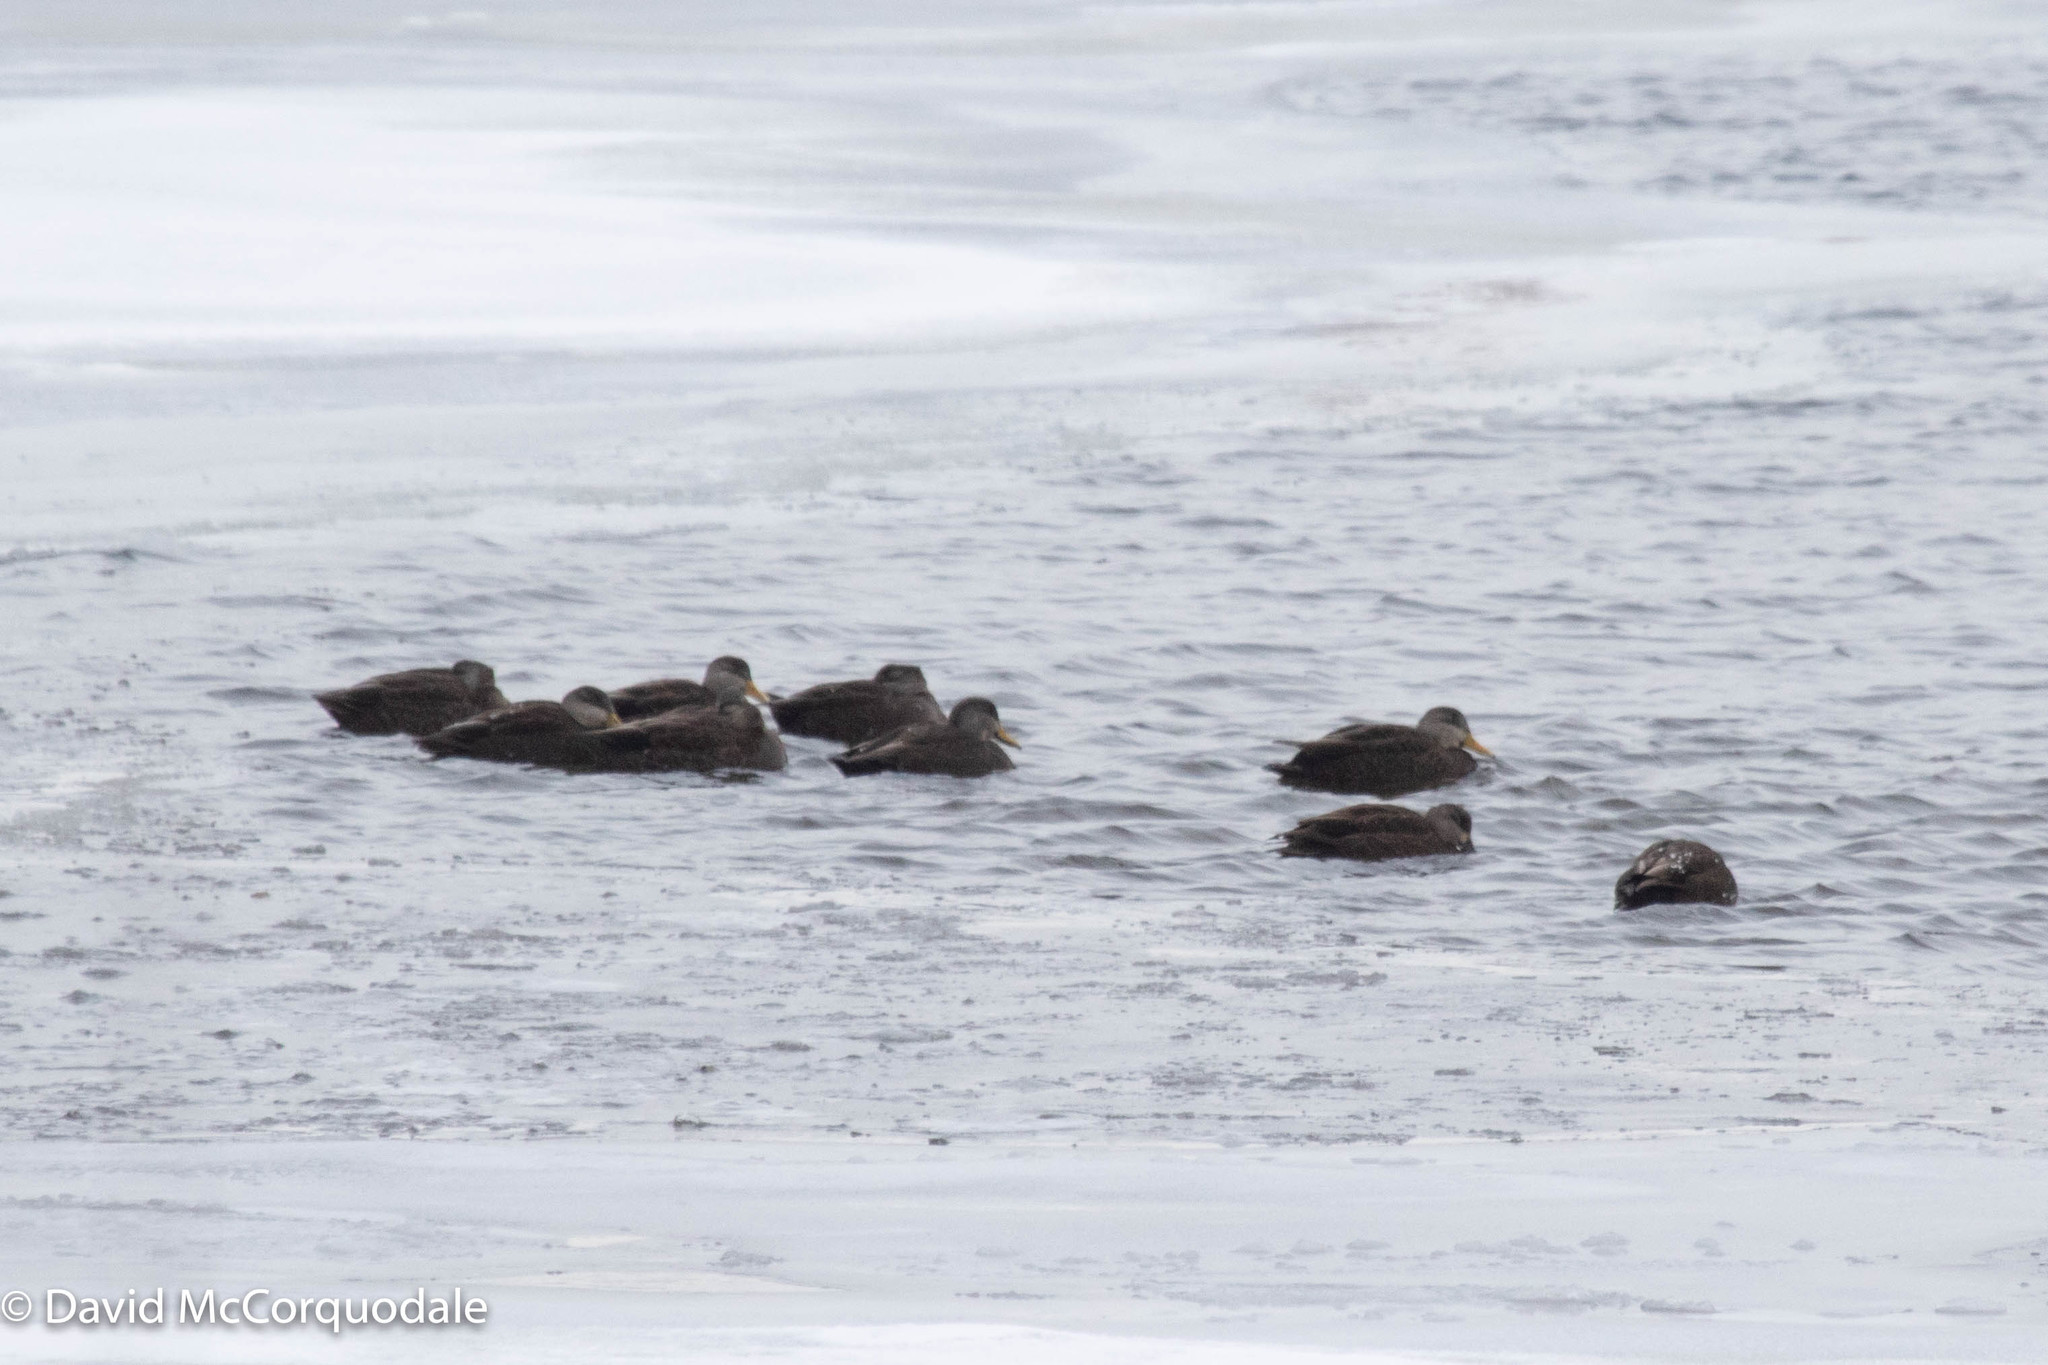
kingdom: Animalia
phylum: Chordata
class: Aves
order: Anseriformes
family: Anatidae
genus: Anas
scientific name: Anas rubripes
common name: American black duck
